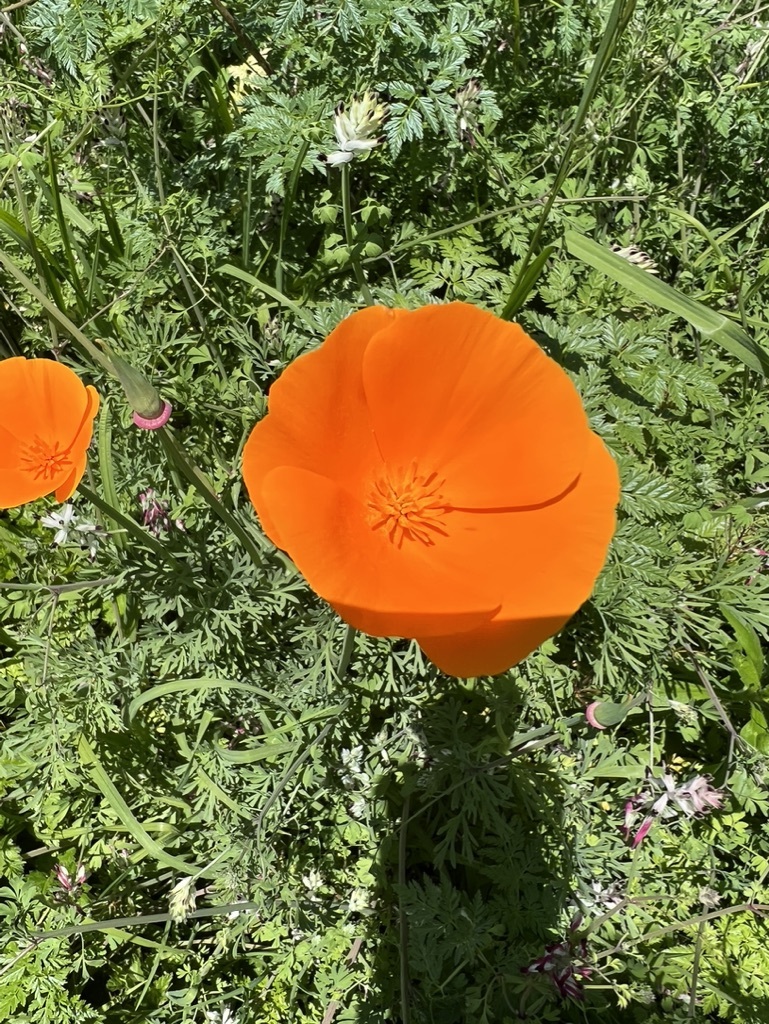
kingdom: Plantae
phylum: Tracheophyta
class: Magnoliopsida
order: Ranunculales
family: Papaveraceae
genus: Eschscholzia
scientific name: Eschscholzia californica
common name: California poppy
